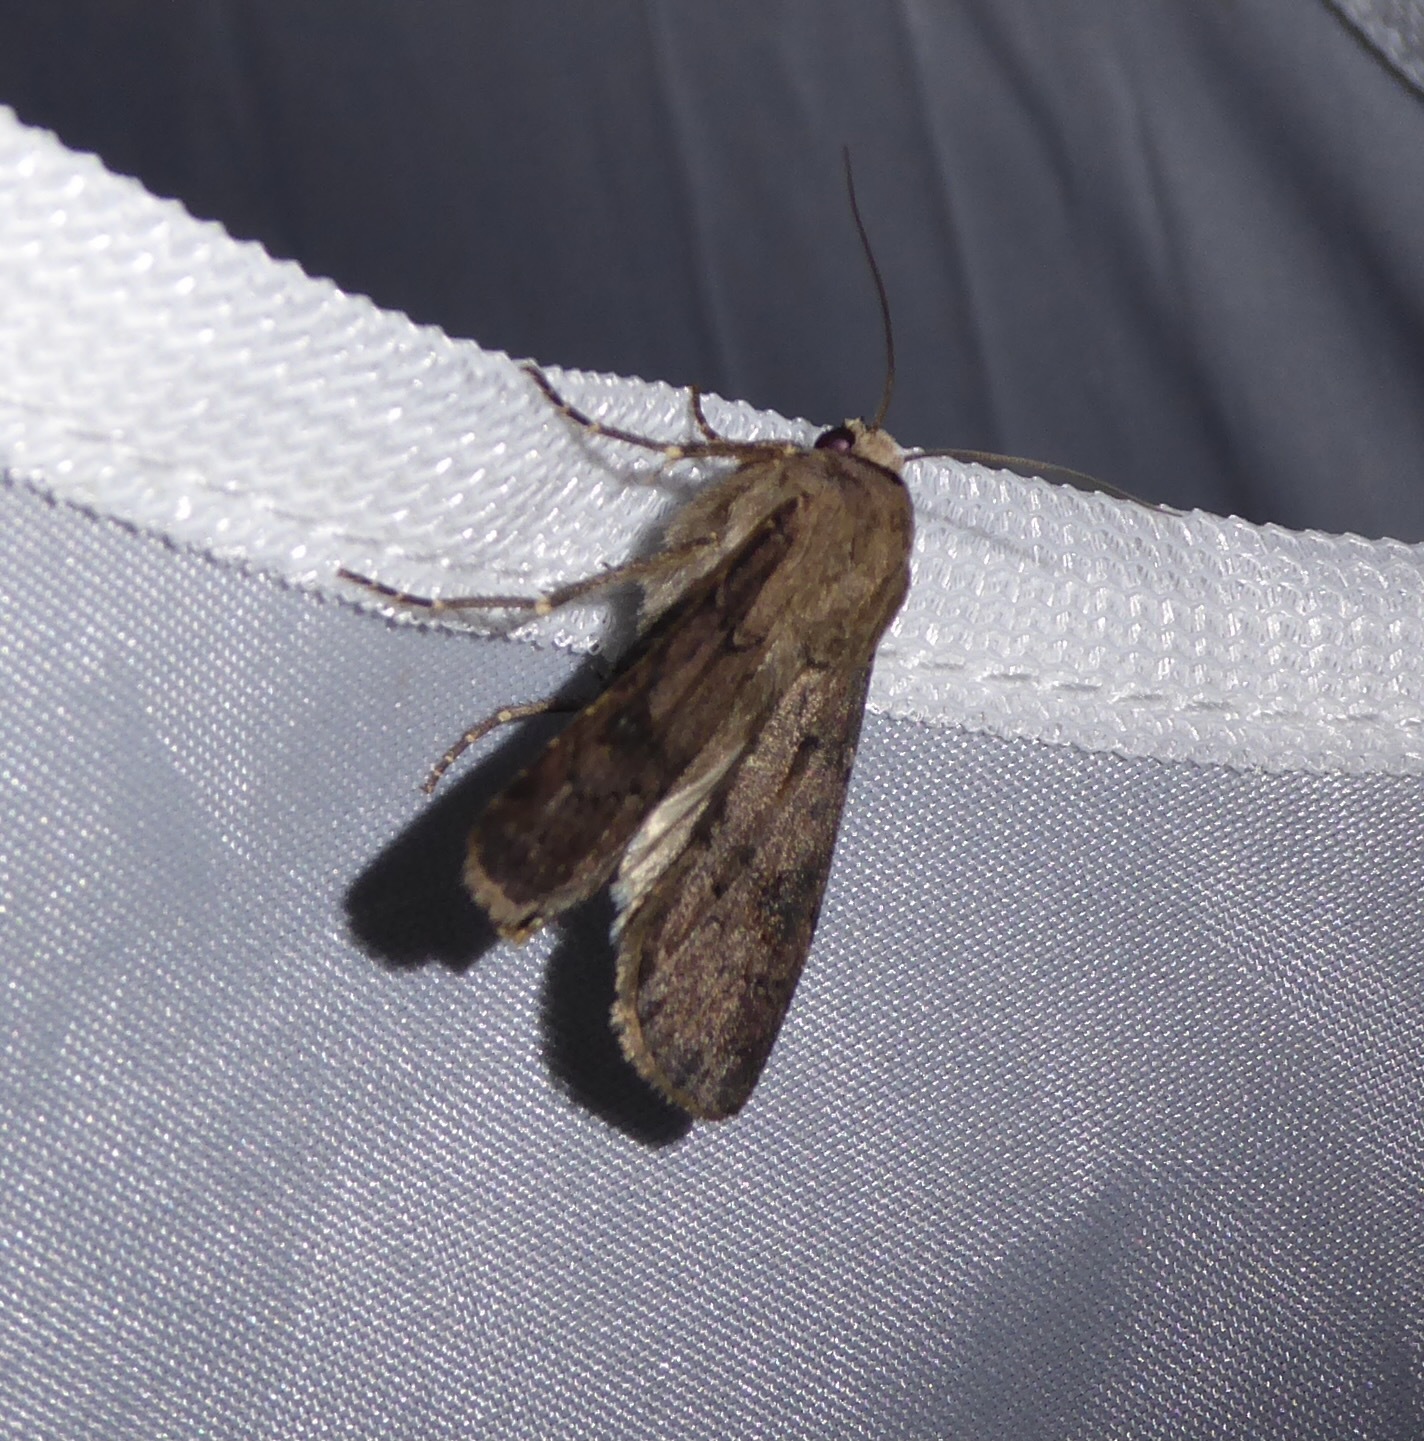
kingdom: Animalia
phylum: Arthropoda
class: Insecta
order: Lepidoptera
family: Noctuidae
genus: Agrotis
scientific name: Agrotis exclamationis
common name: Heart and dart
